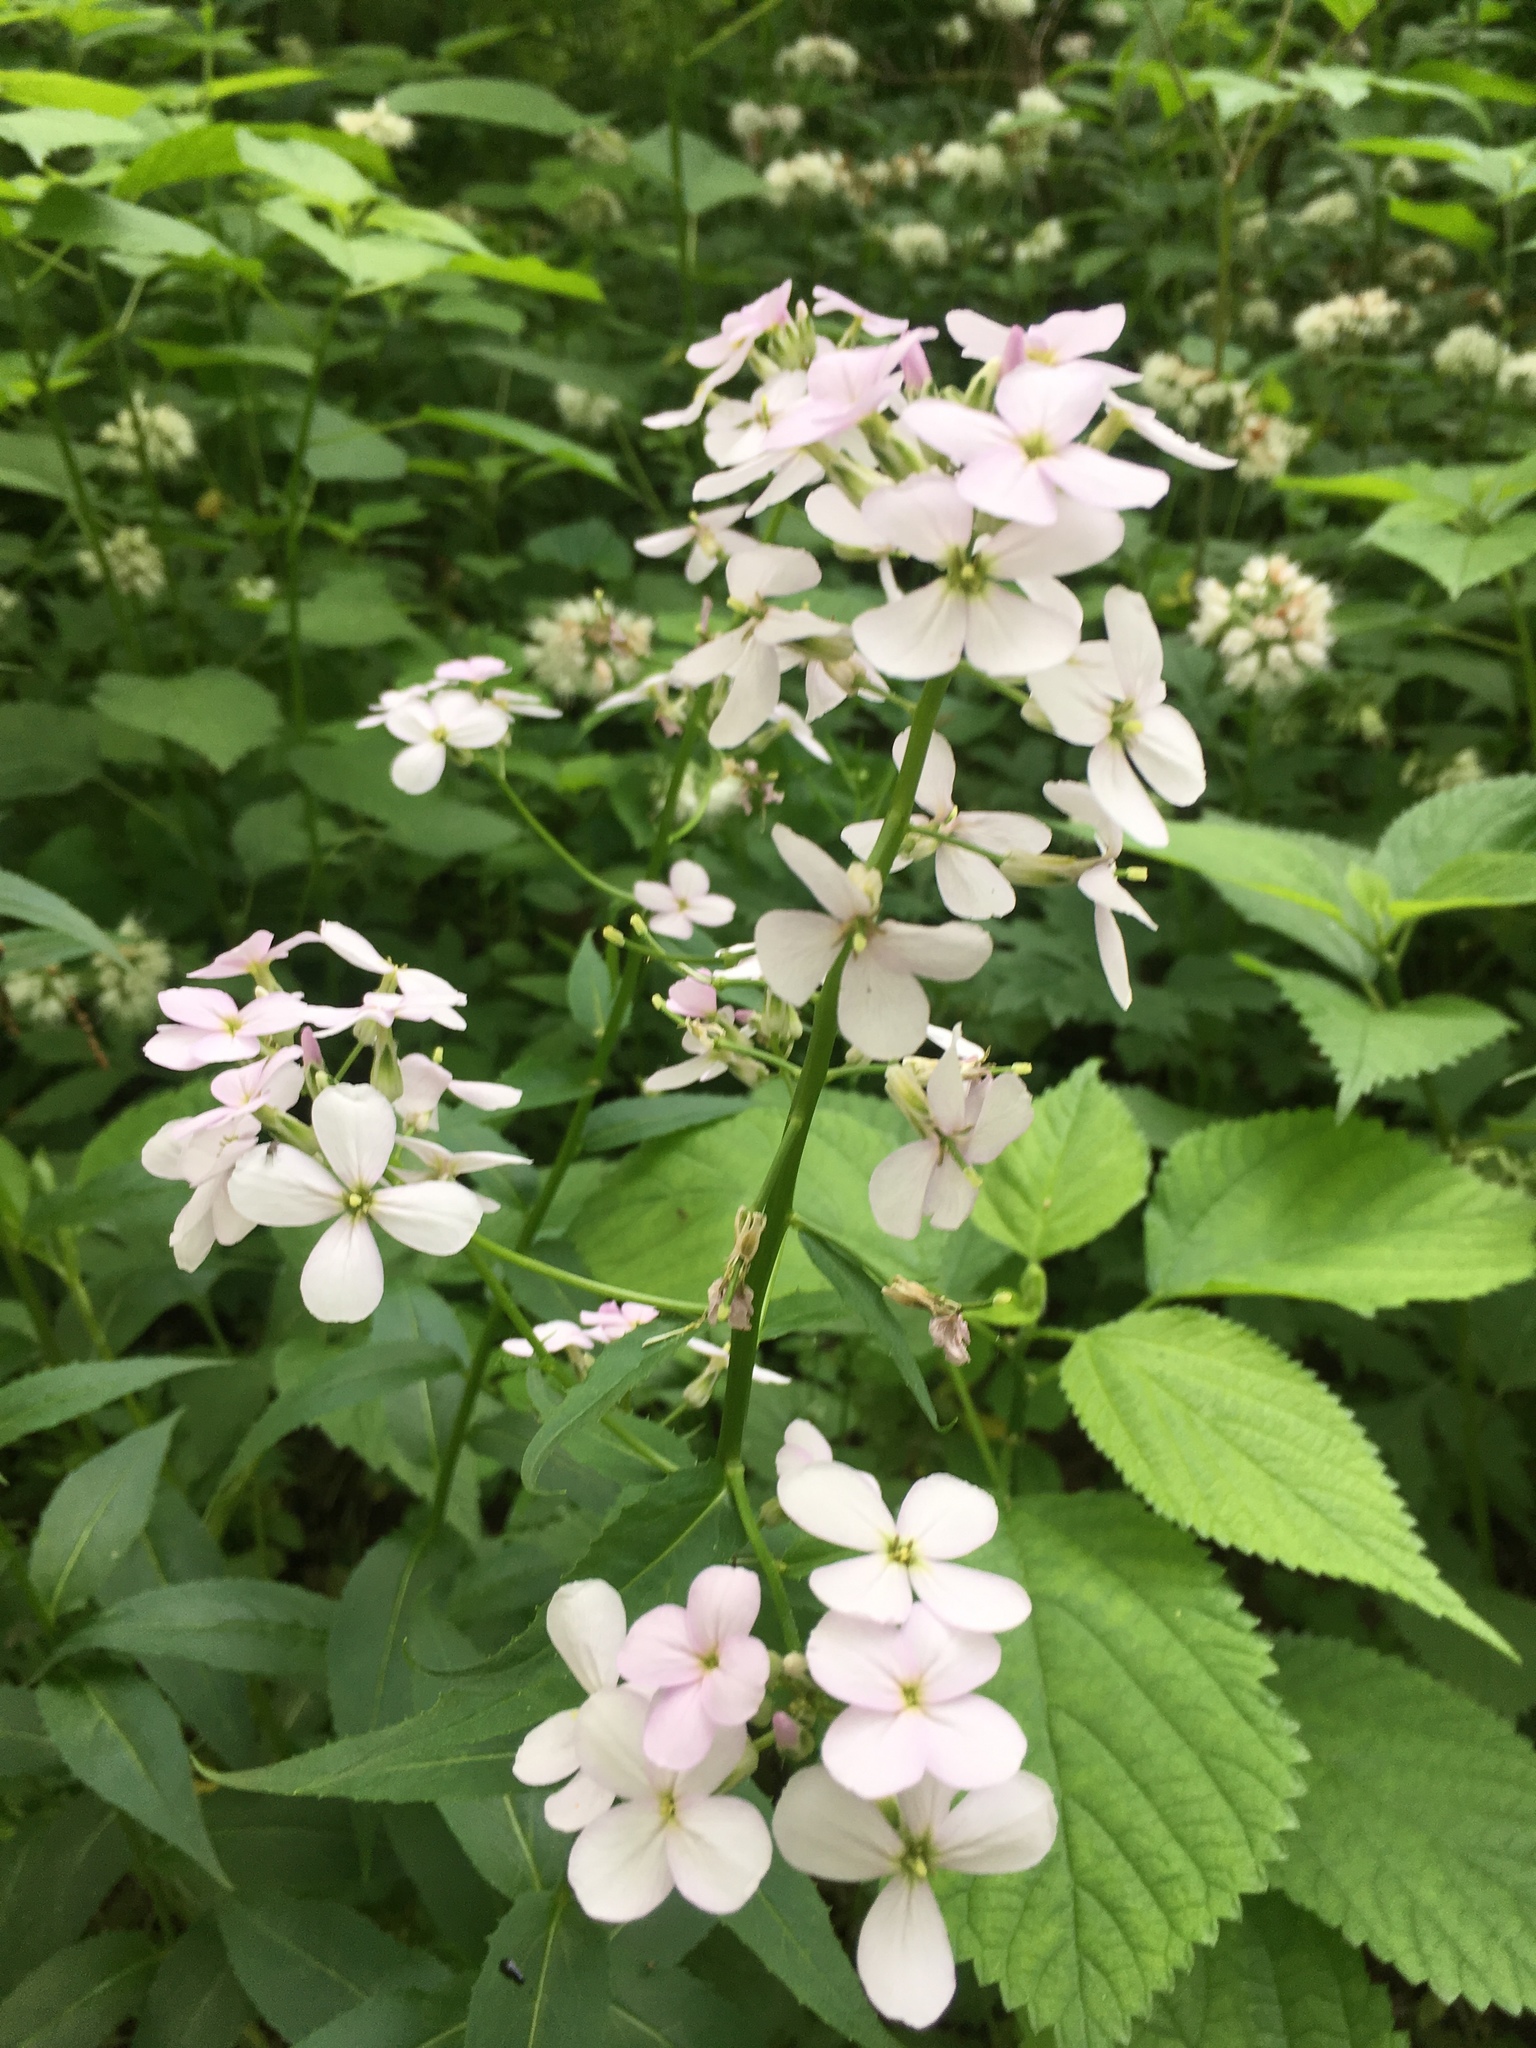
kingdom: Plantae
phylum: Tracheophyta
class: Magnoliopsida
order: Brassicales
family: Brassicaceae
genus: Hesperis
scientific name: Hesperis matronalis
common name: Dame's-violet
